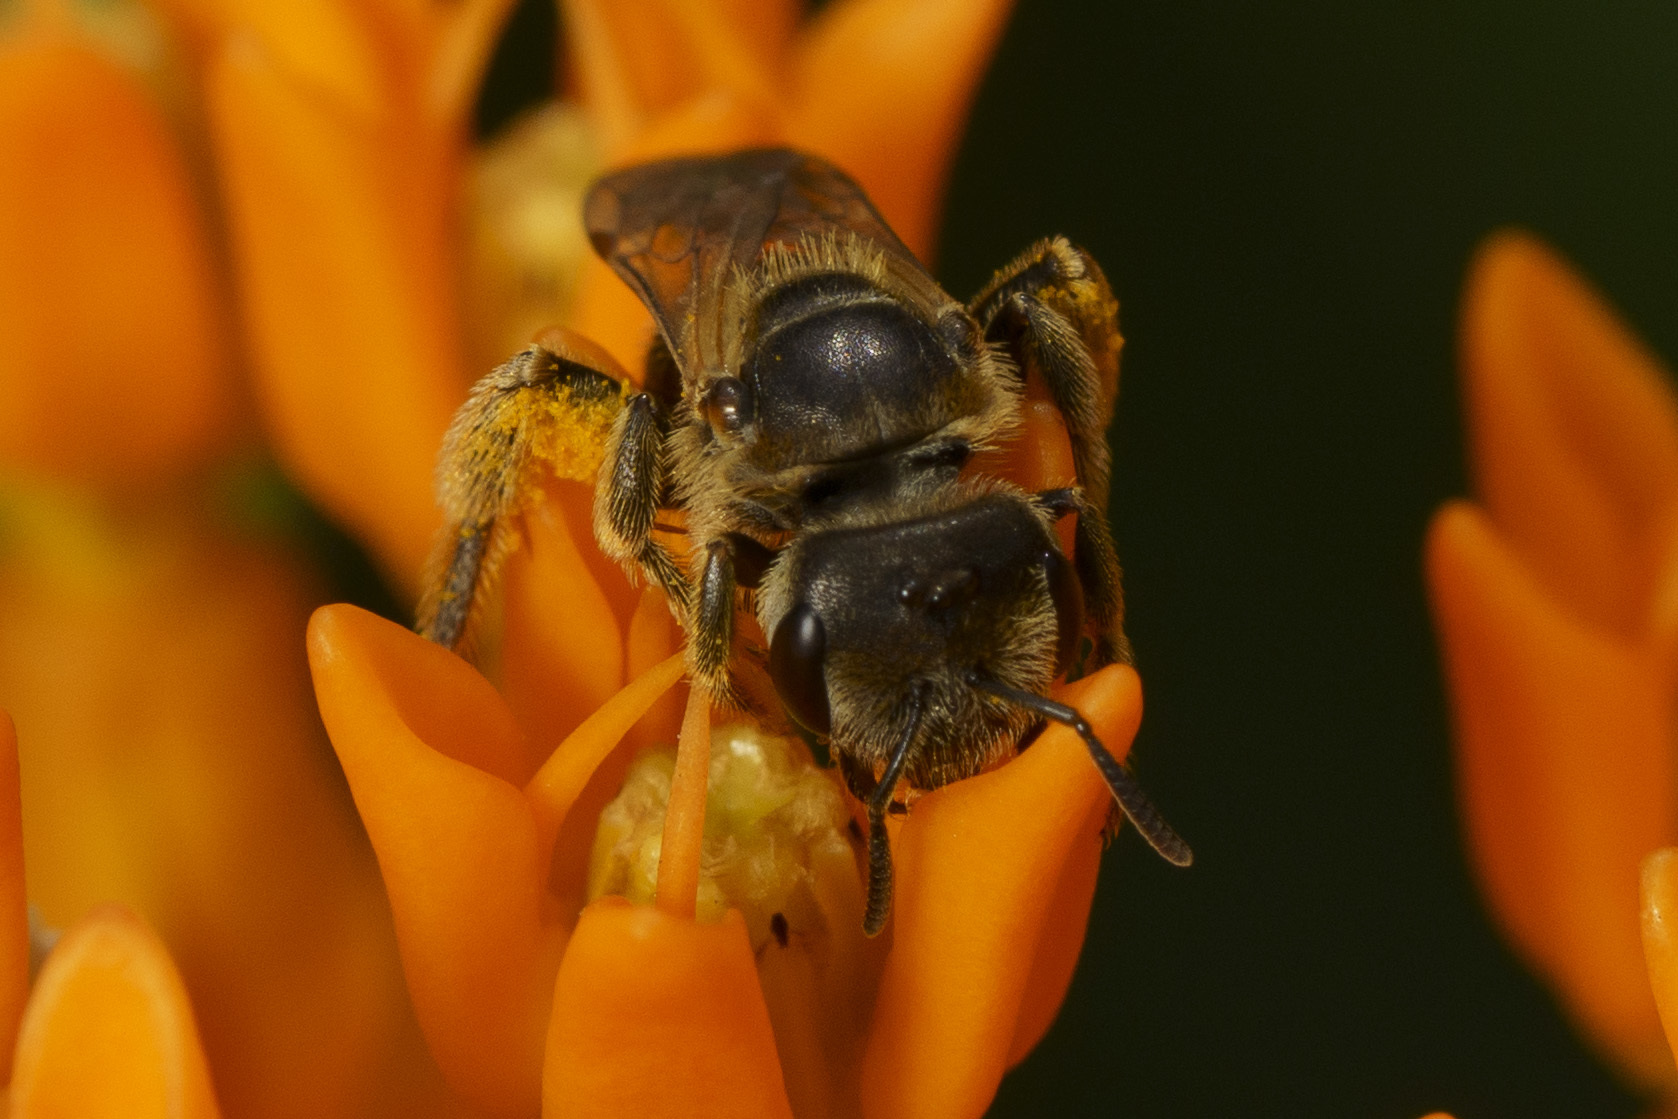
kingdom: Animalia
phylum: Arthropoda
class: Insecta
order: Hymenoptera
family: Halictidae
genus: Halictus
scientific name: Halictus ligatus
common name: Ligated furrow bee
